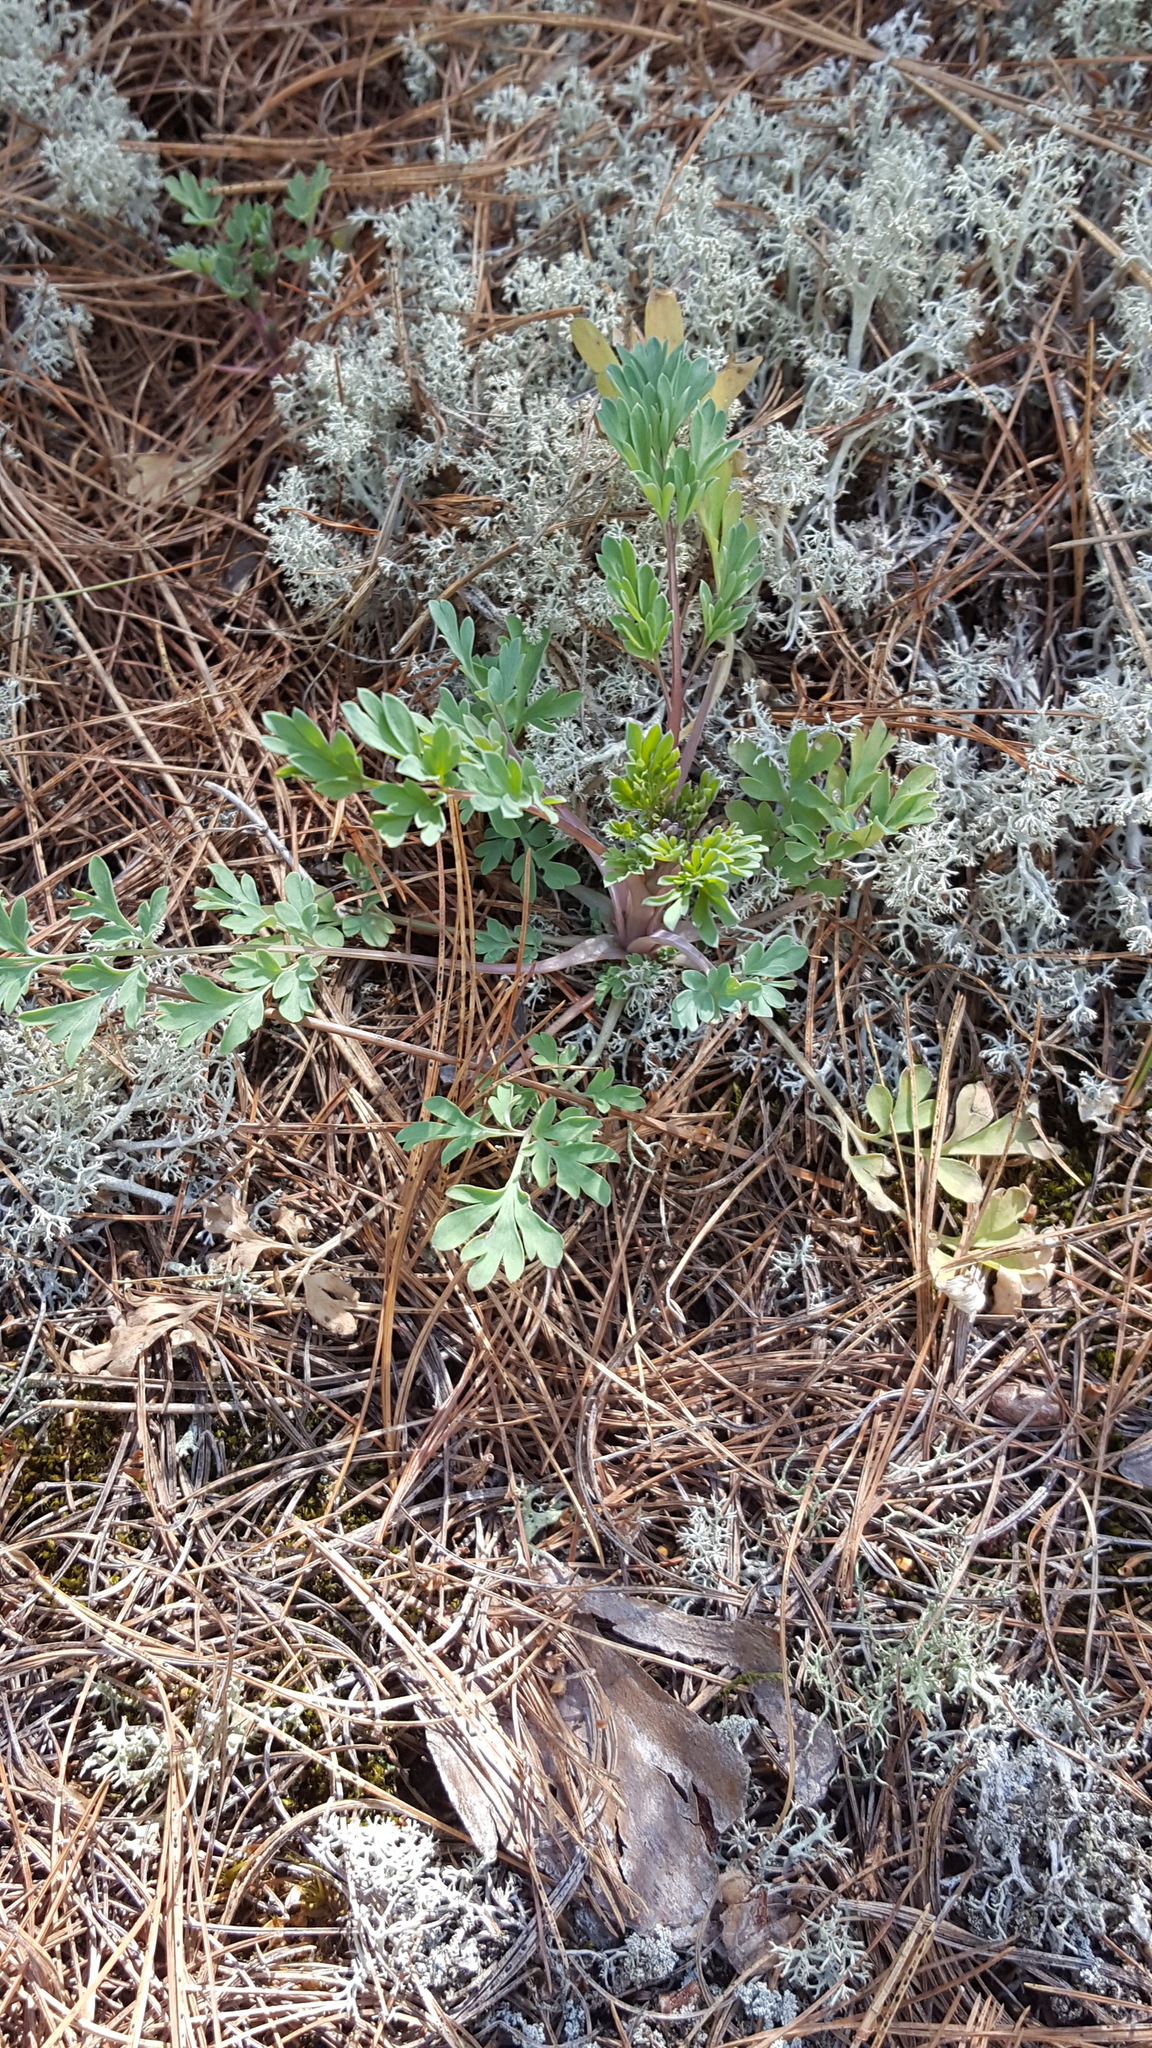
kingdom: Plantae
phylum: Tracheophyta
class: Magnoliopsida
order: Ranunculales
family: Papaveraceae
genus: Capnoides
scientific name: Capnoides sempervirens
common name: Rock harlequin
